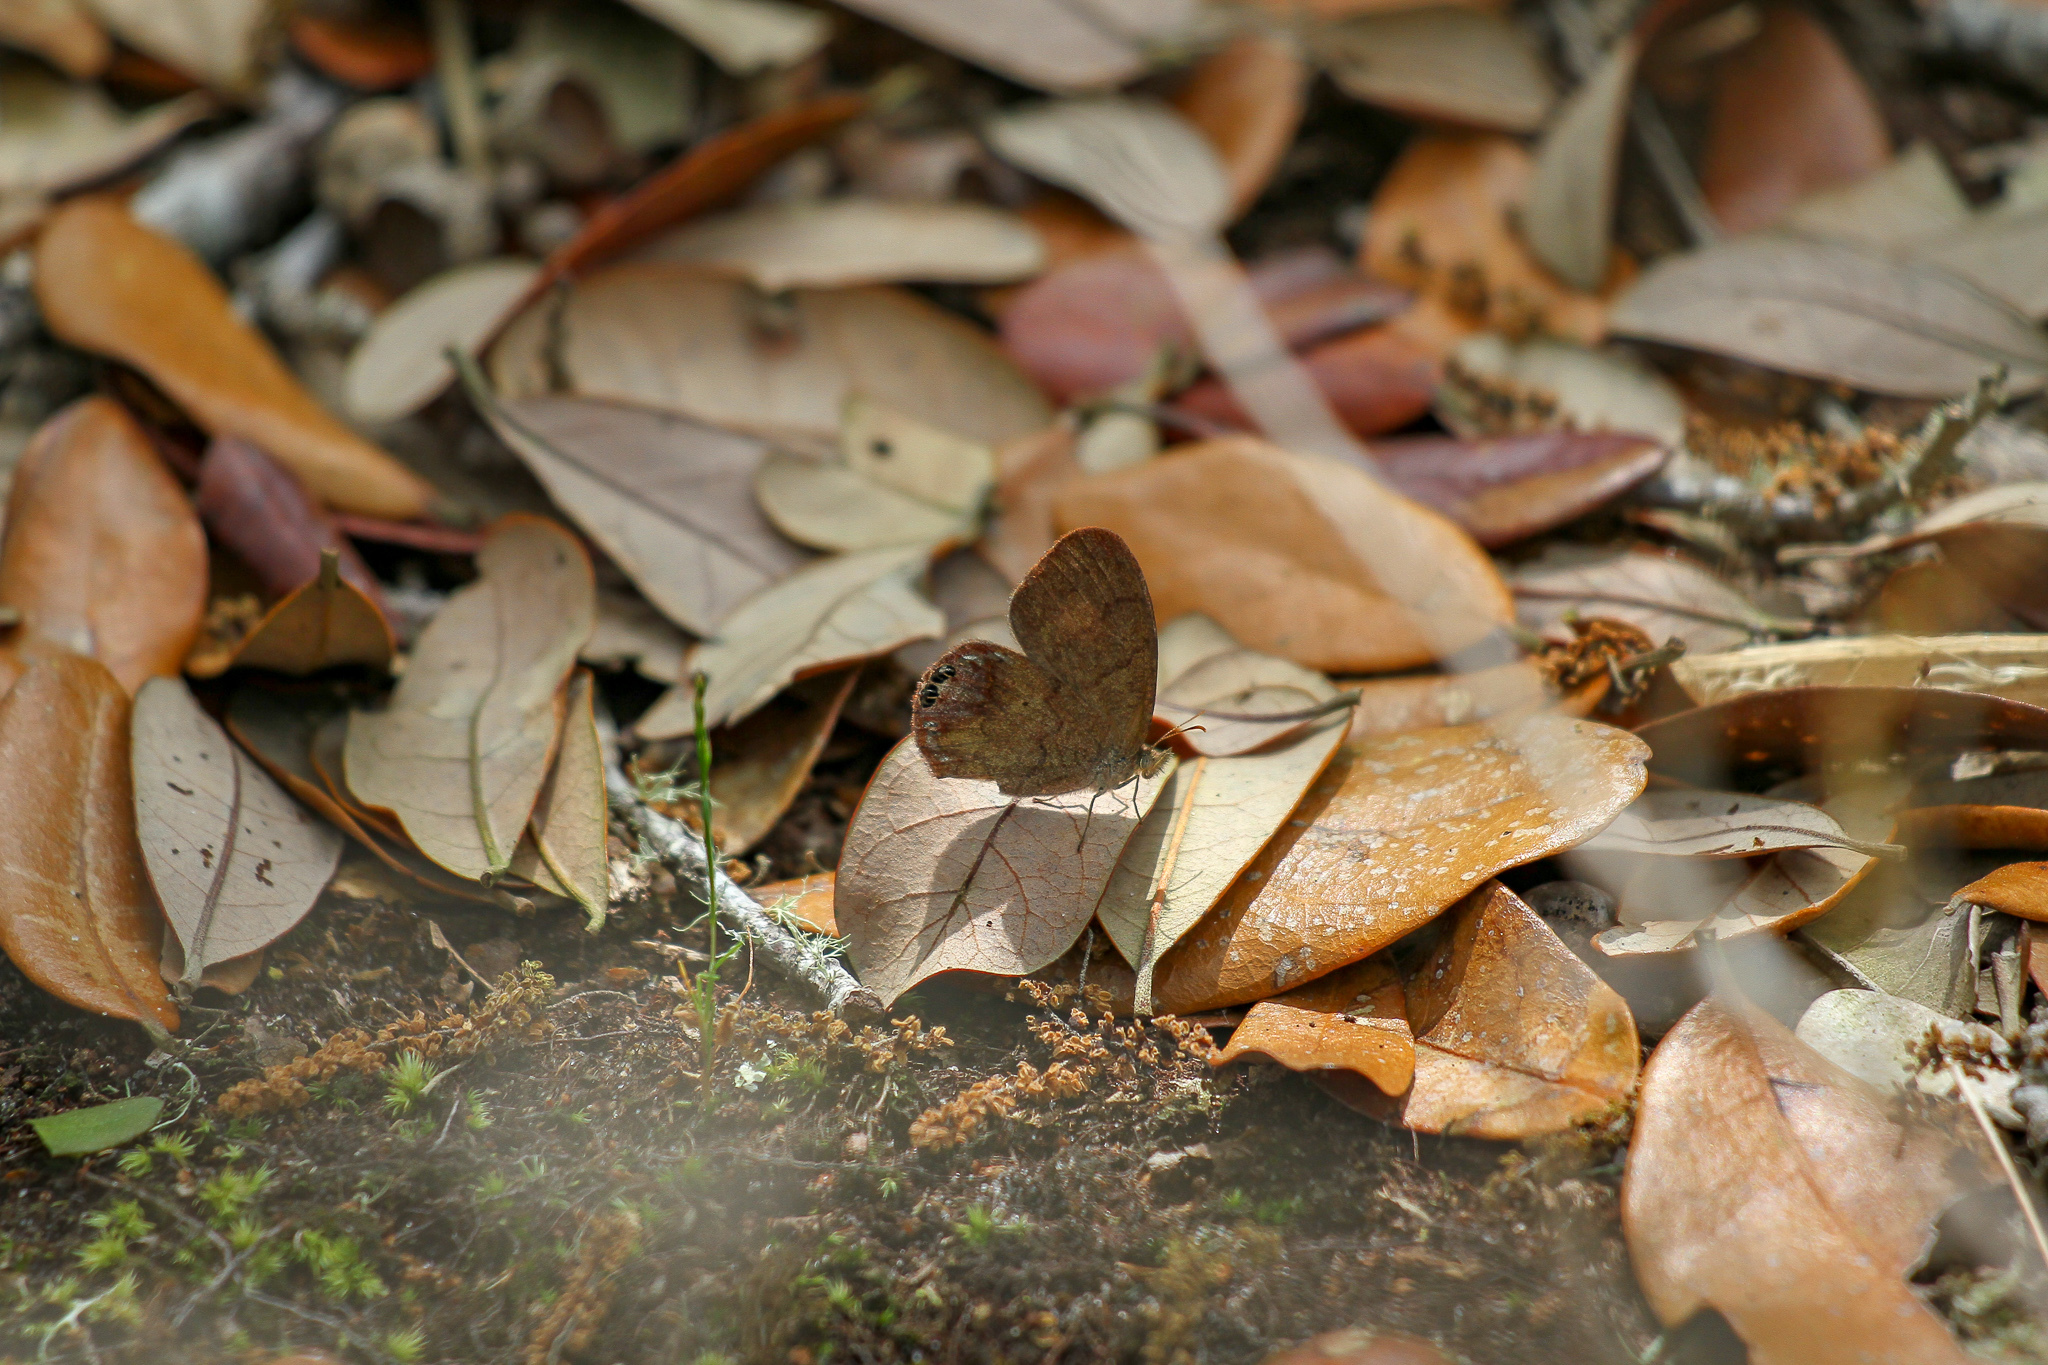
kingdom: Animalia
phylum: Arthropoda
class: Insecta
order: Lepidoptera
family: Nymphalidae
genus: Euptychia
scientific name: Euptychia cornelius
